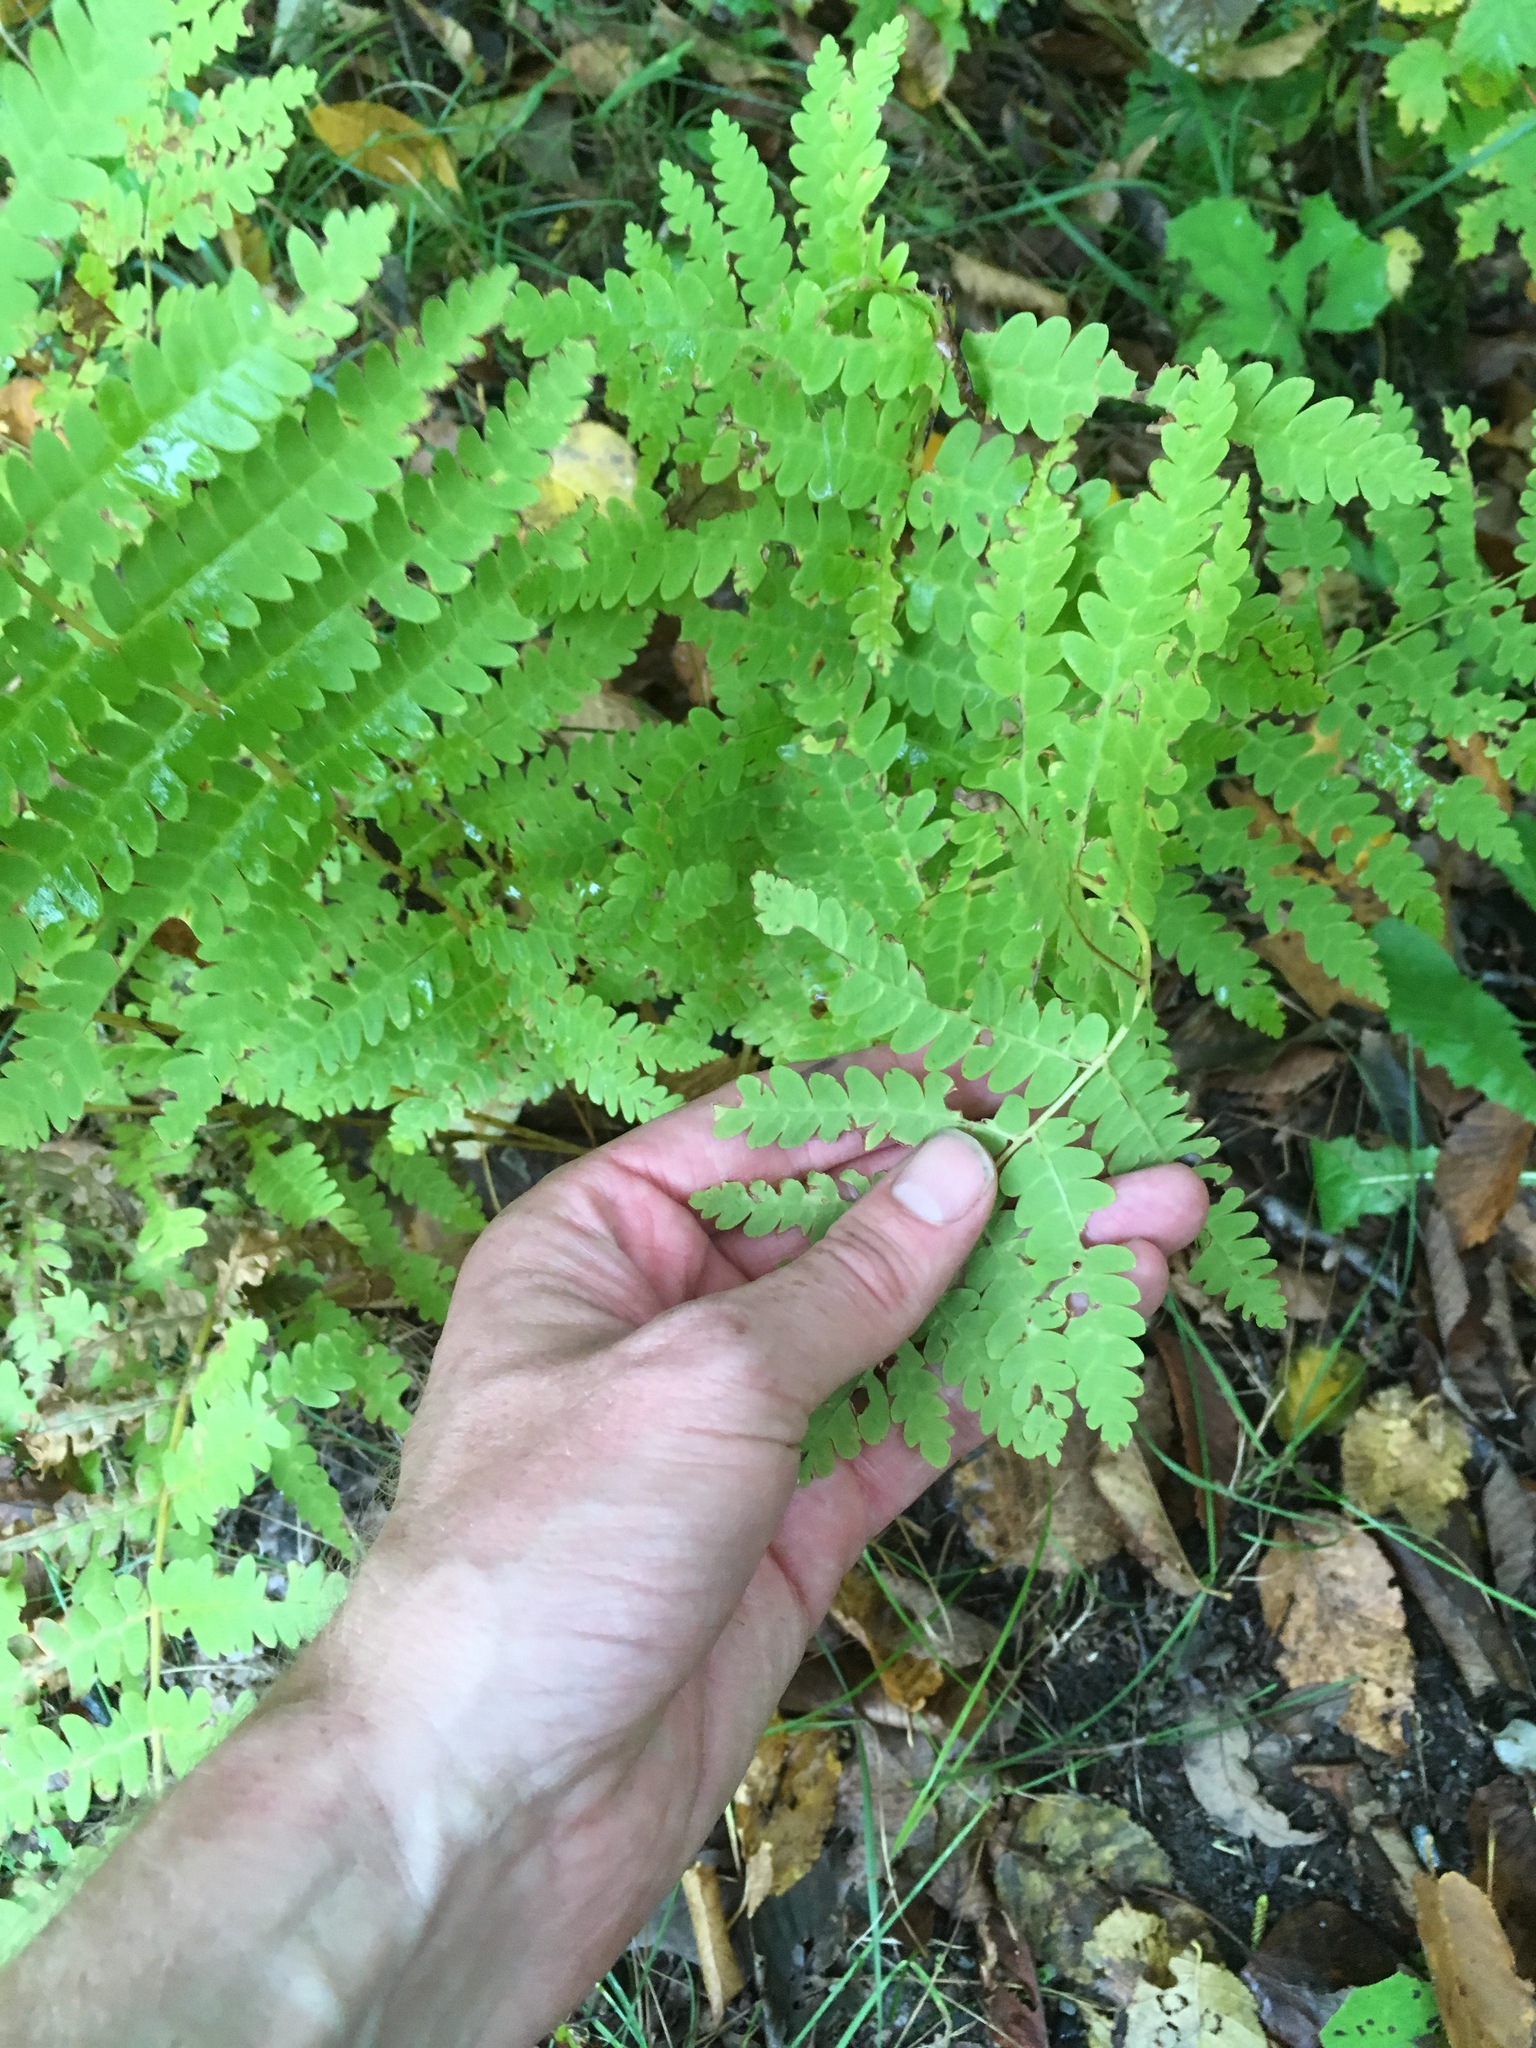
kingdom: Plantae
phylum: Tracheophyta
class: Polypodiopsida
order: Osmundales
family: Osmundaceae
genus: Claytosmunda
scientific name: Claytosmunda claytoniana
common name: Clayton's fern
